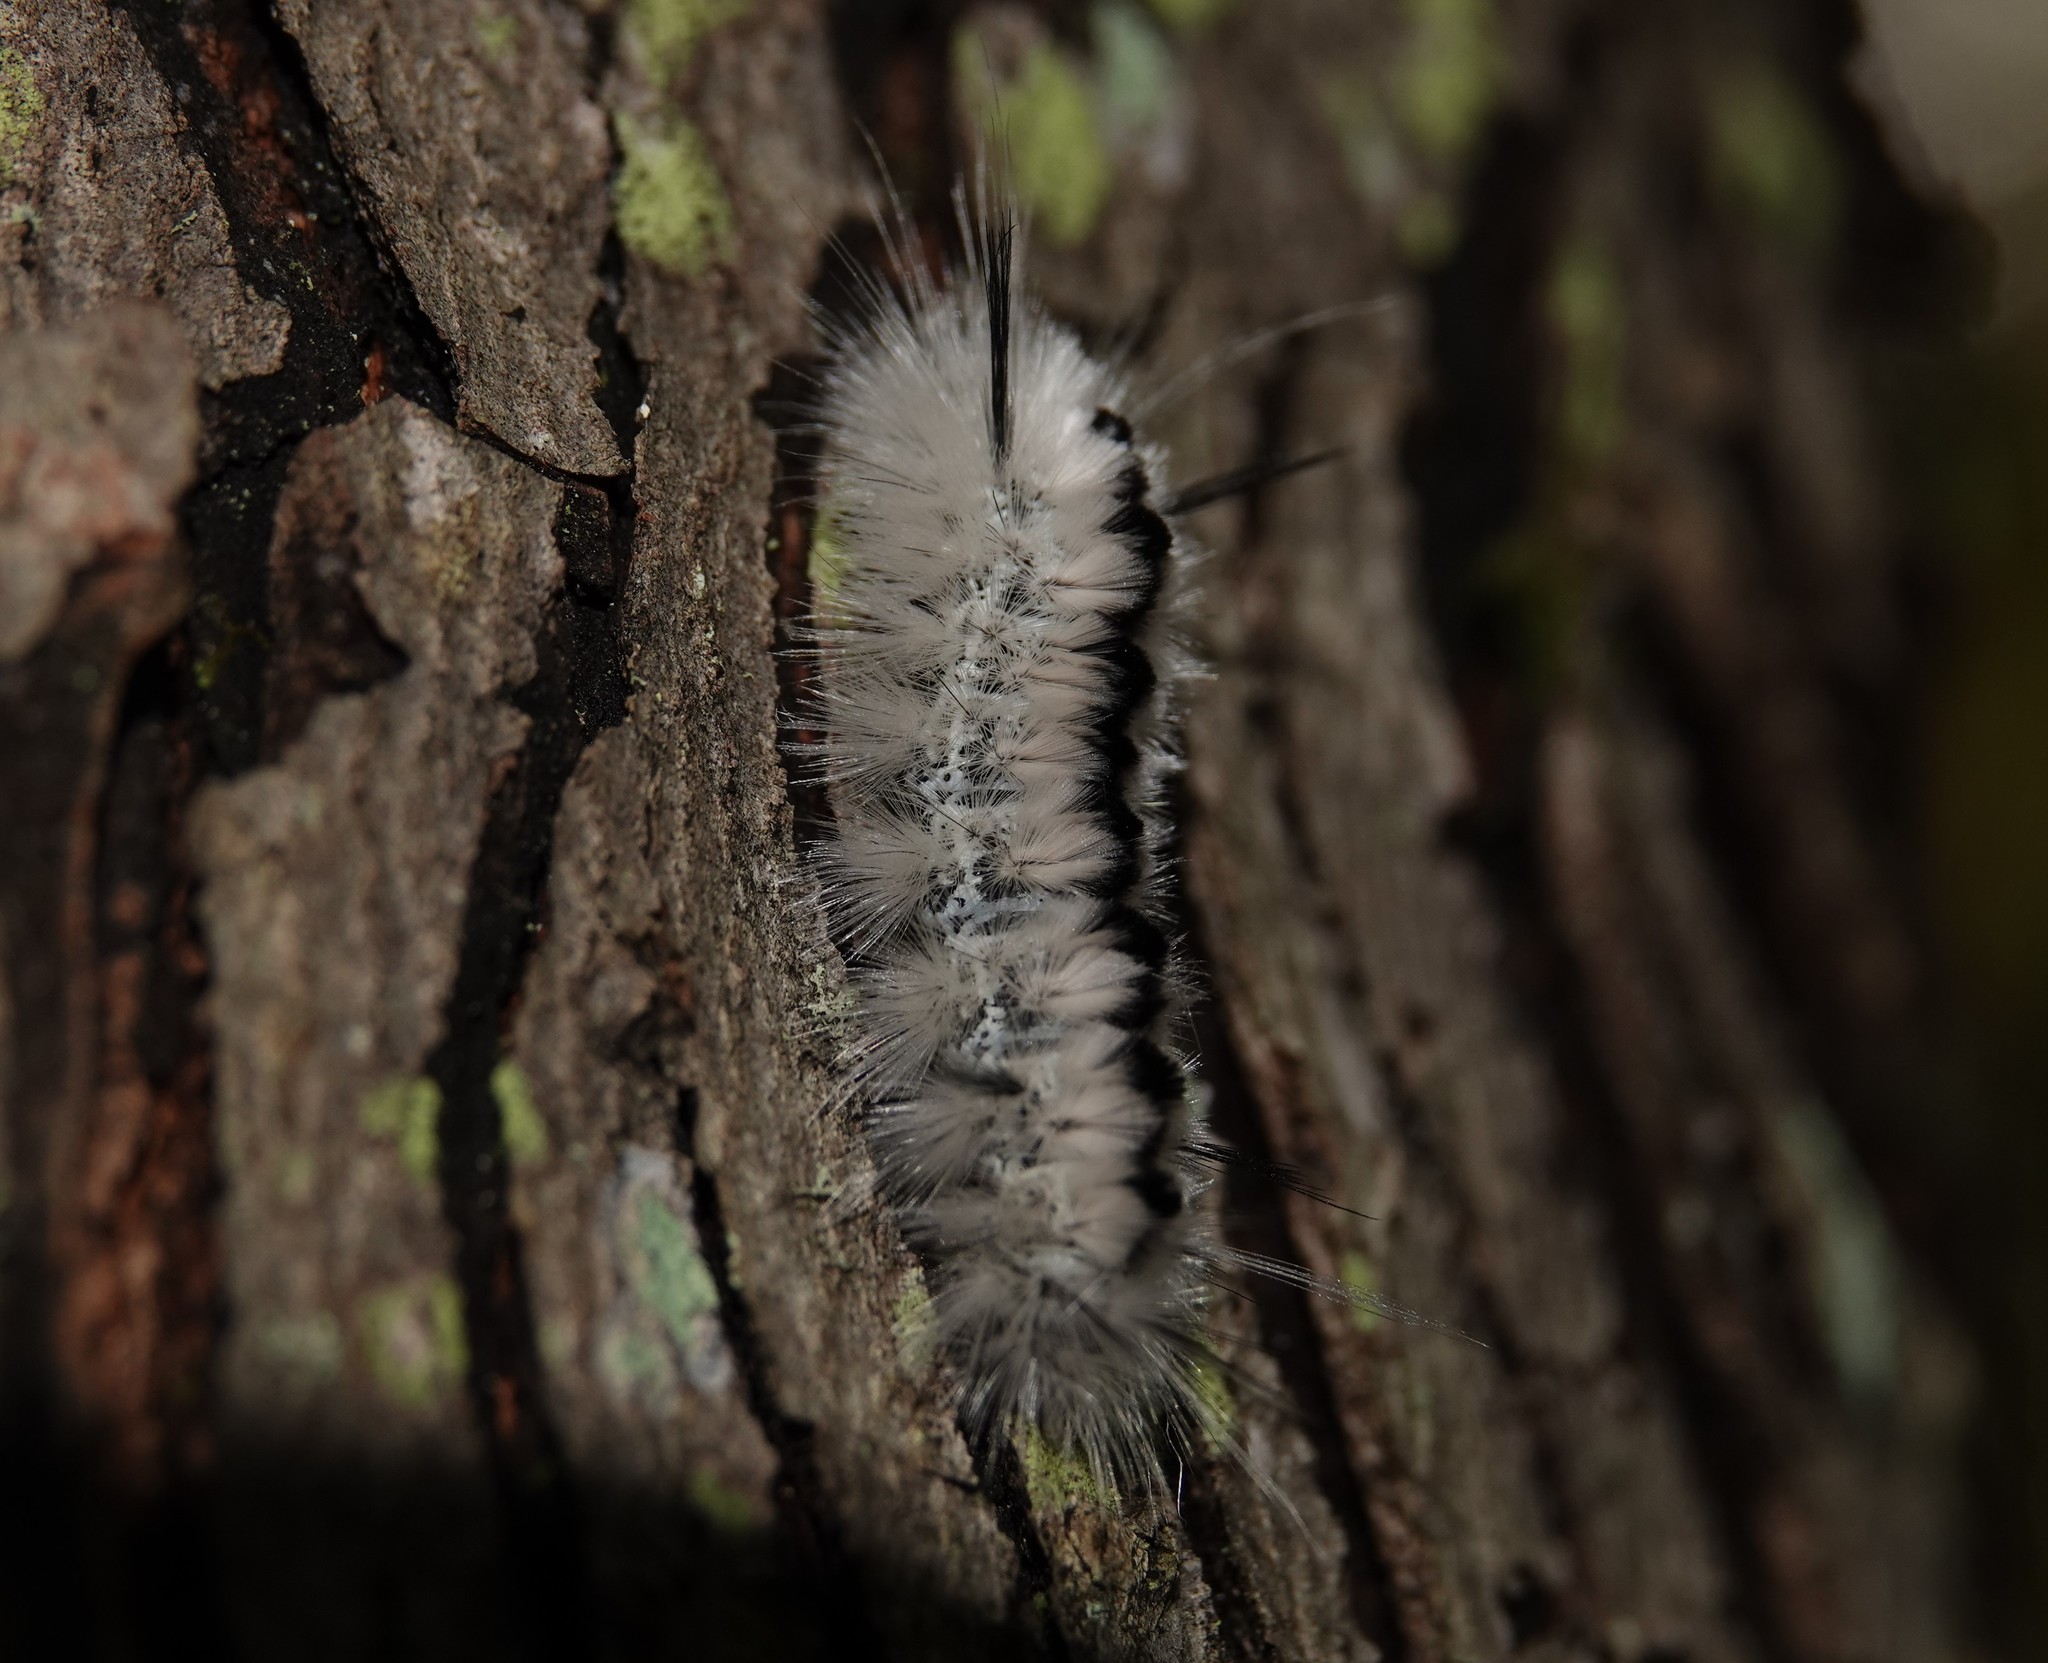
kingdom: Animalia
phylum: Arthropoda
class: Insecta
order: Lepidoptera
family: Erebidae
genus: Lophocampa
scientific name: Lophocampa caryae
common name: Hickory tussock moth
